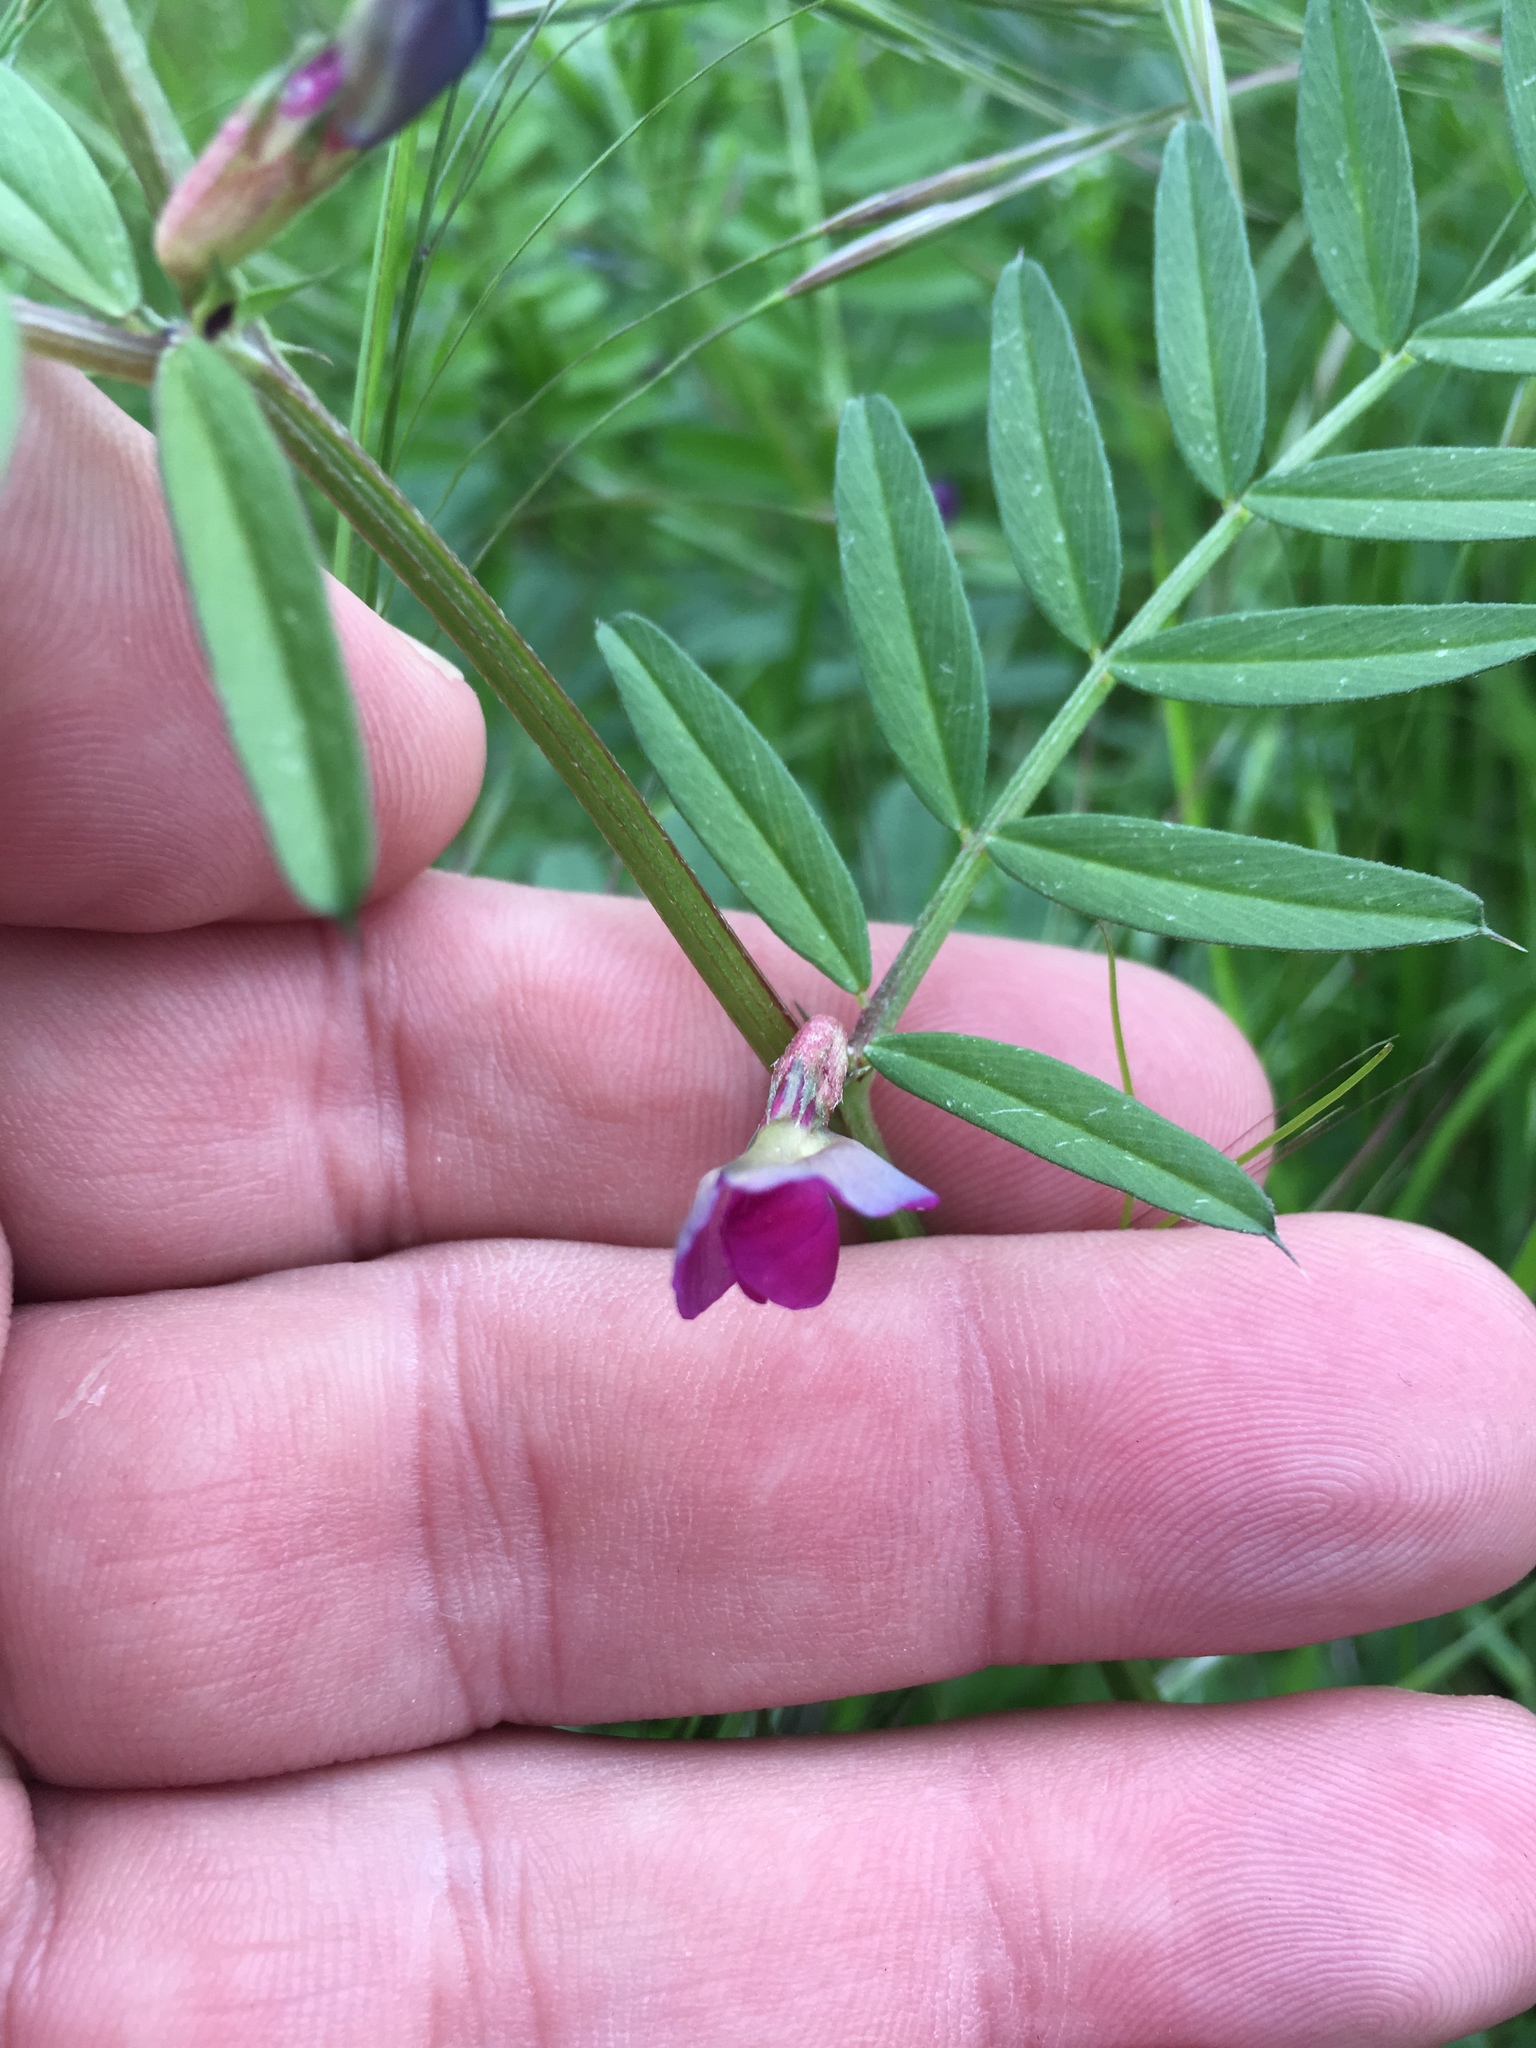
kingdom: Plantae
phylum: Tracheophyta
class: Magnoliopsida
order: Fabales
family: Fabaceae
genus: Vicia
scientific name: Vicia sativa
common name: Garden vetch
